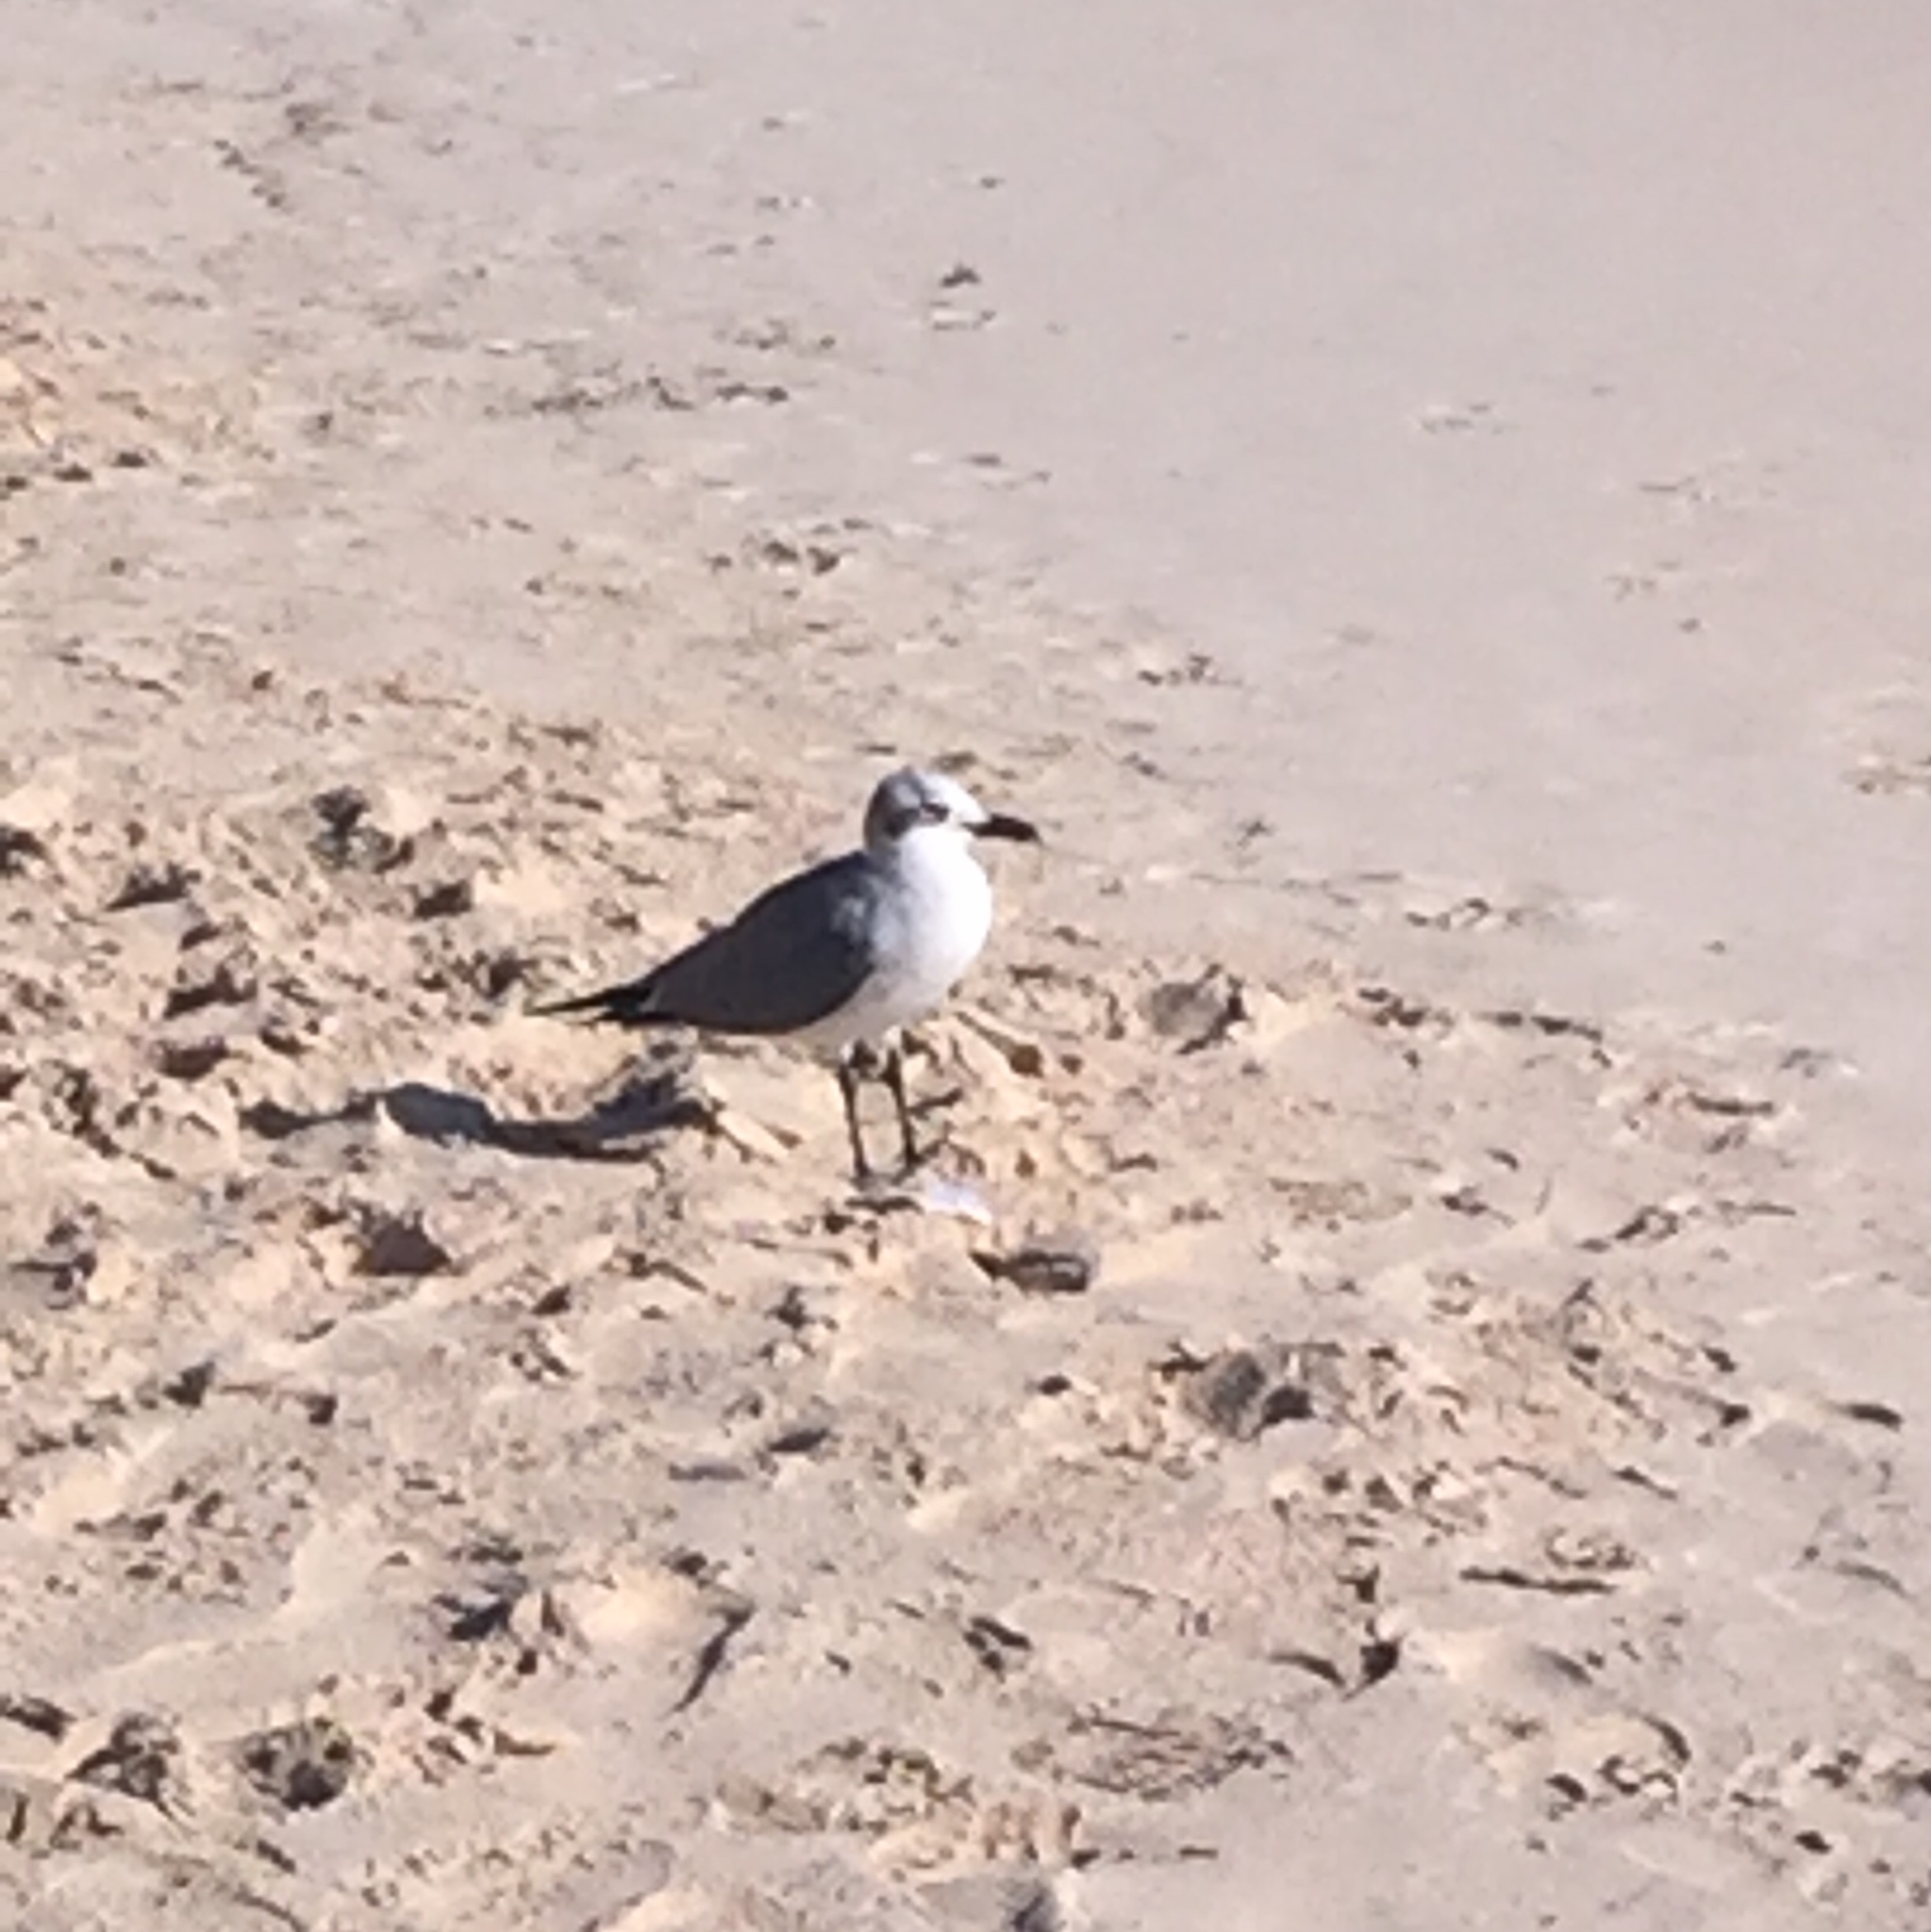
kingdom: Animalia
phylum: Chordata
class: Aves
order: Charadriiformes
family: Laridae
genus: Leucophaeus
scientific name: Leucophaeus atricilla
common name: Laughing gull
